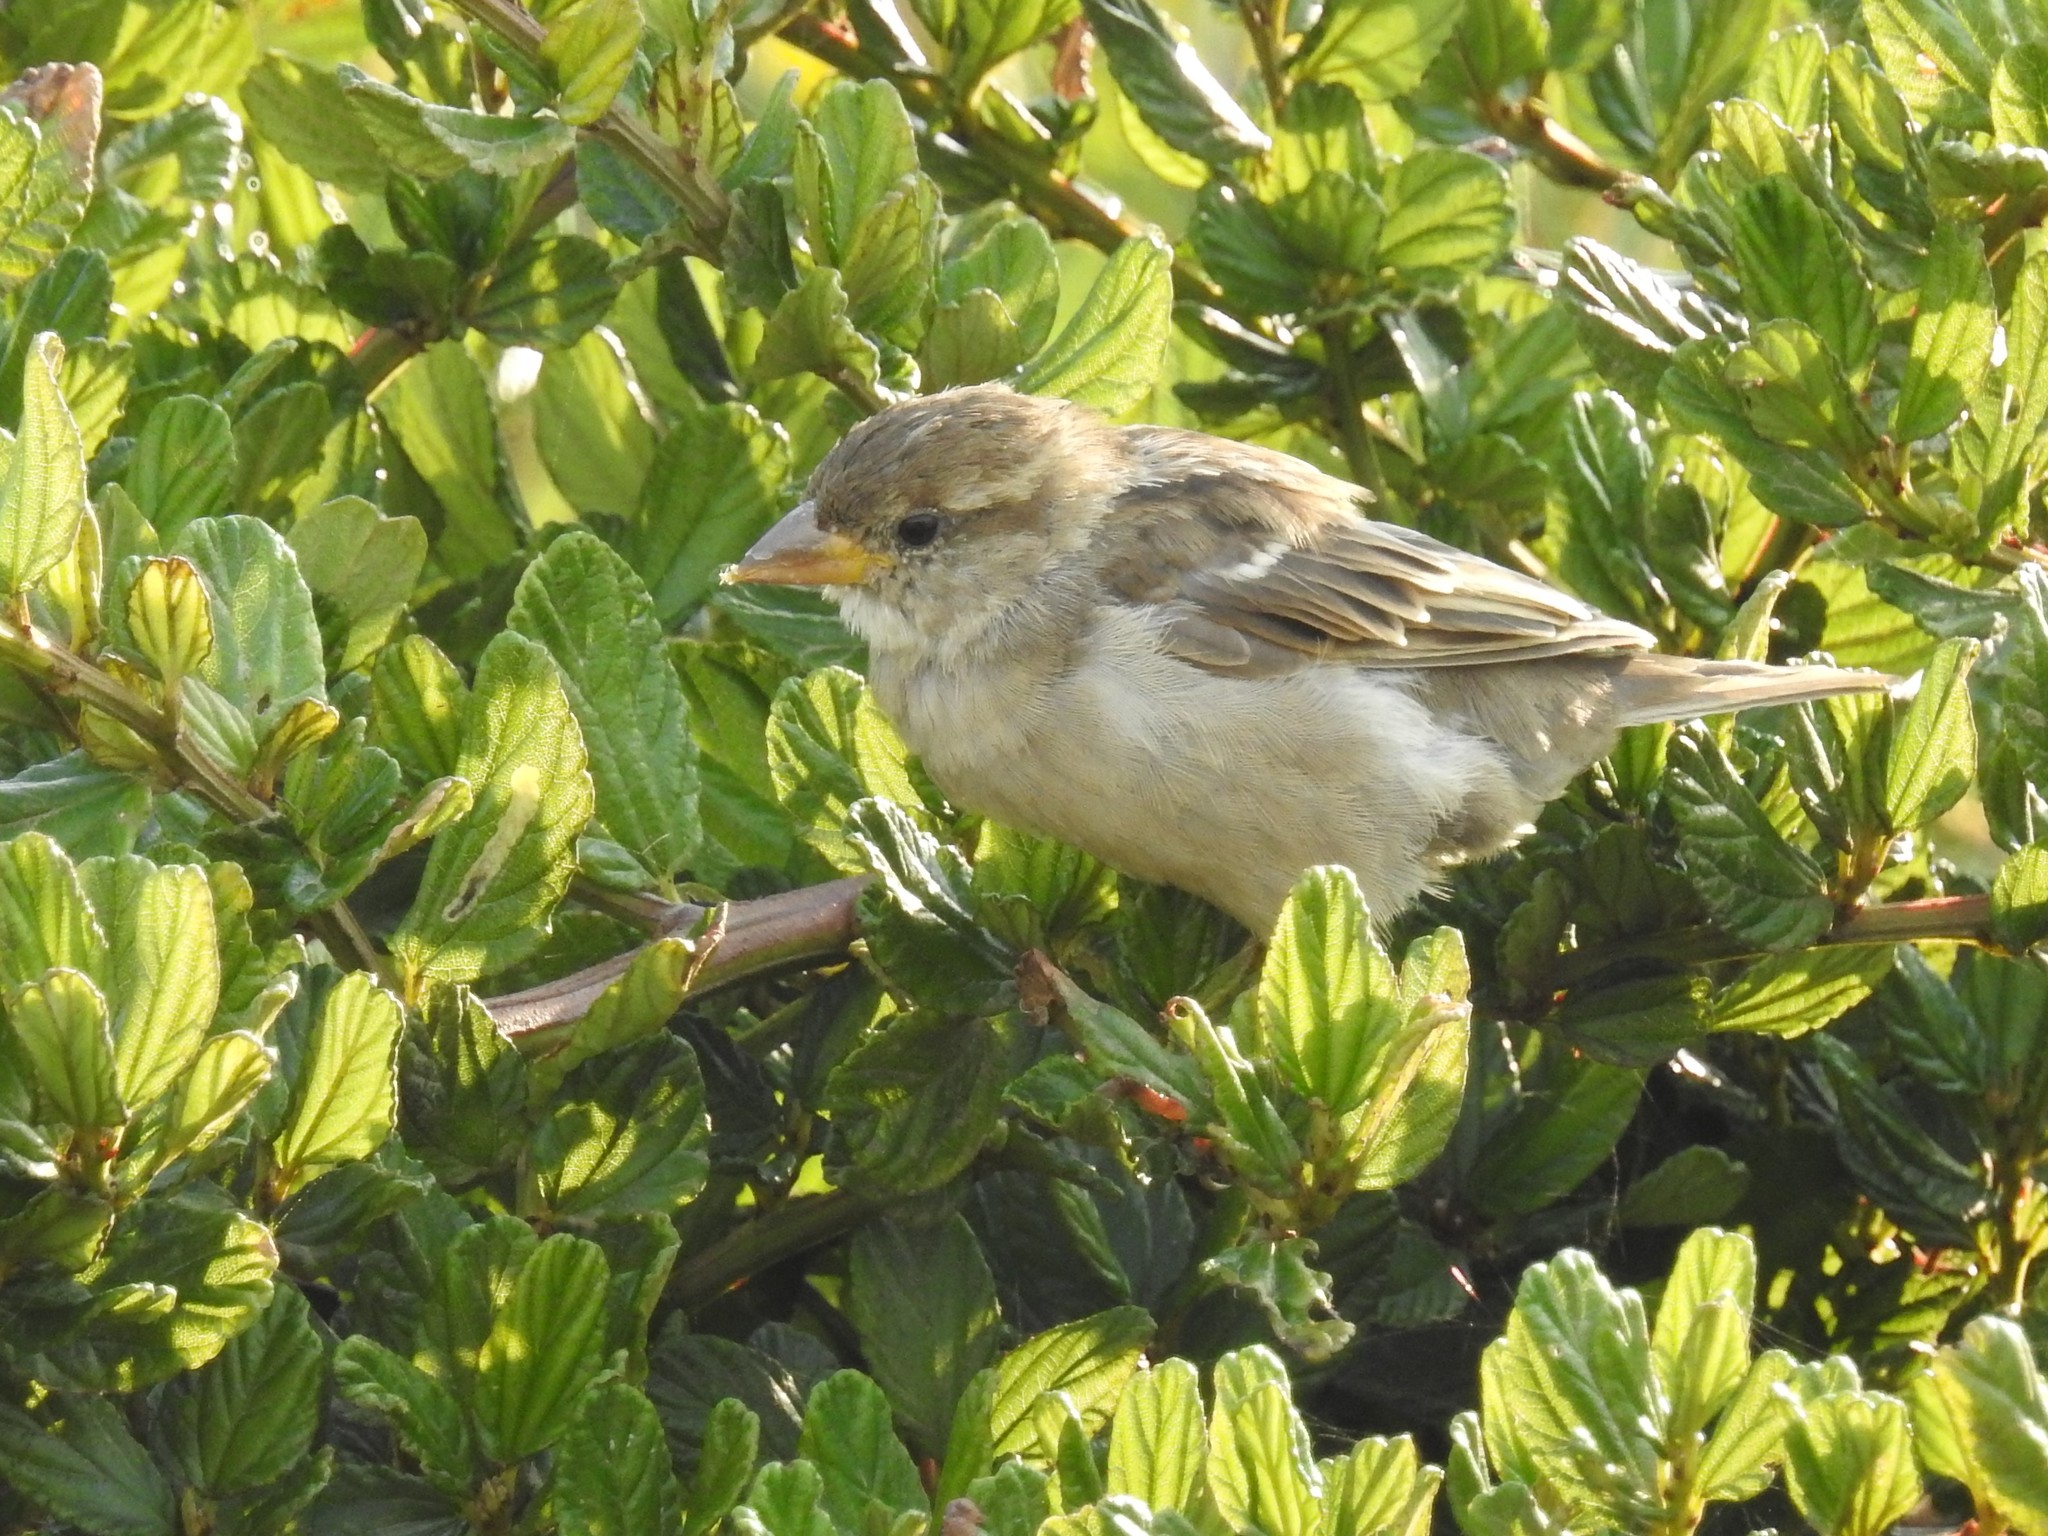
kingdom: Animalia
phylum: Chordata
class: Aves
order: Passeriformes
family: Passeridae
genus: Passer
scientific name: Passer domesticus
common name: House sparrow
